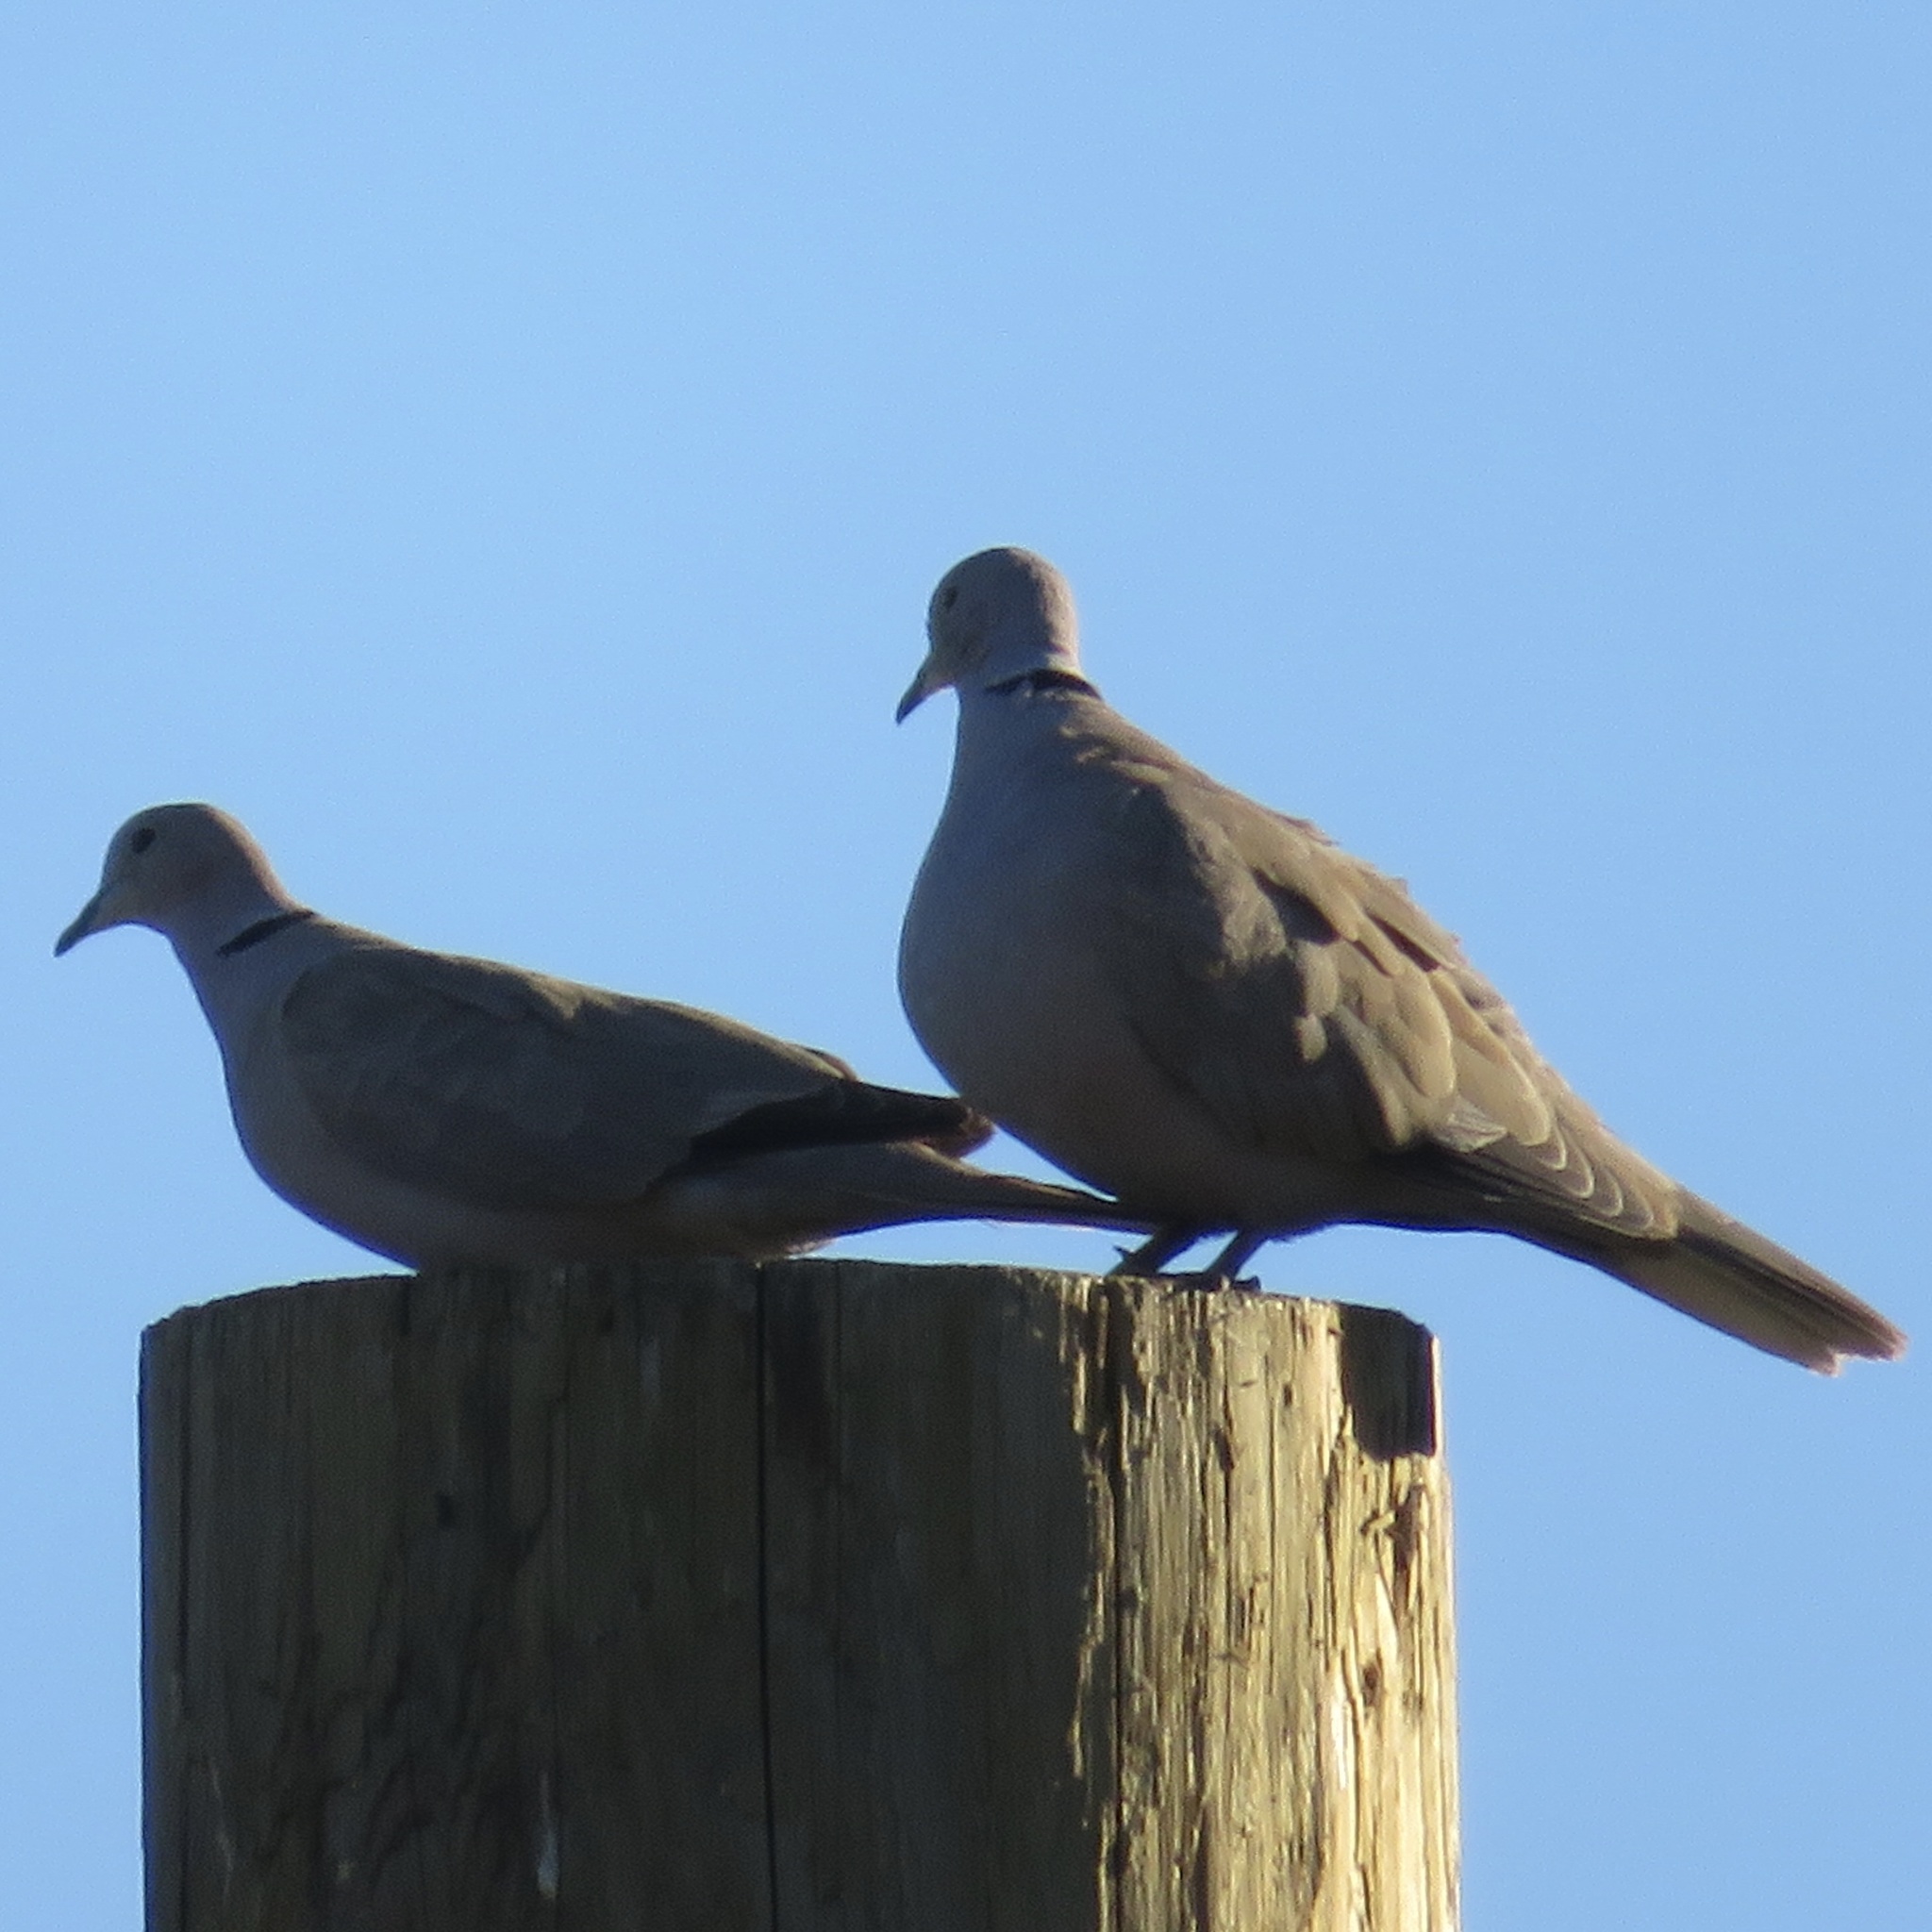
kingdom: Animalia
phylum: Chordata
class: Aves
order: Columbiformes
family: Columbidae
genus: Streptopelia
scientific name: Streptopelia decaocto
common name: Eurasian collared dove
